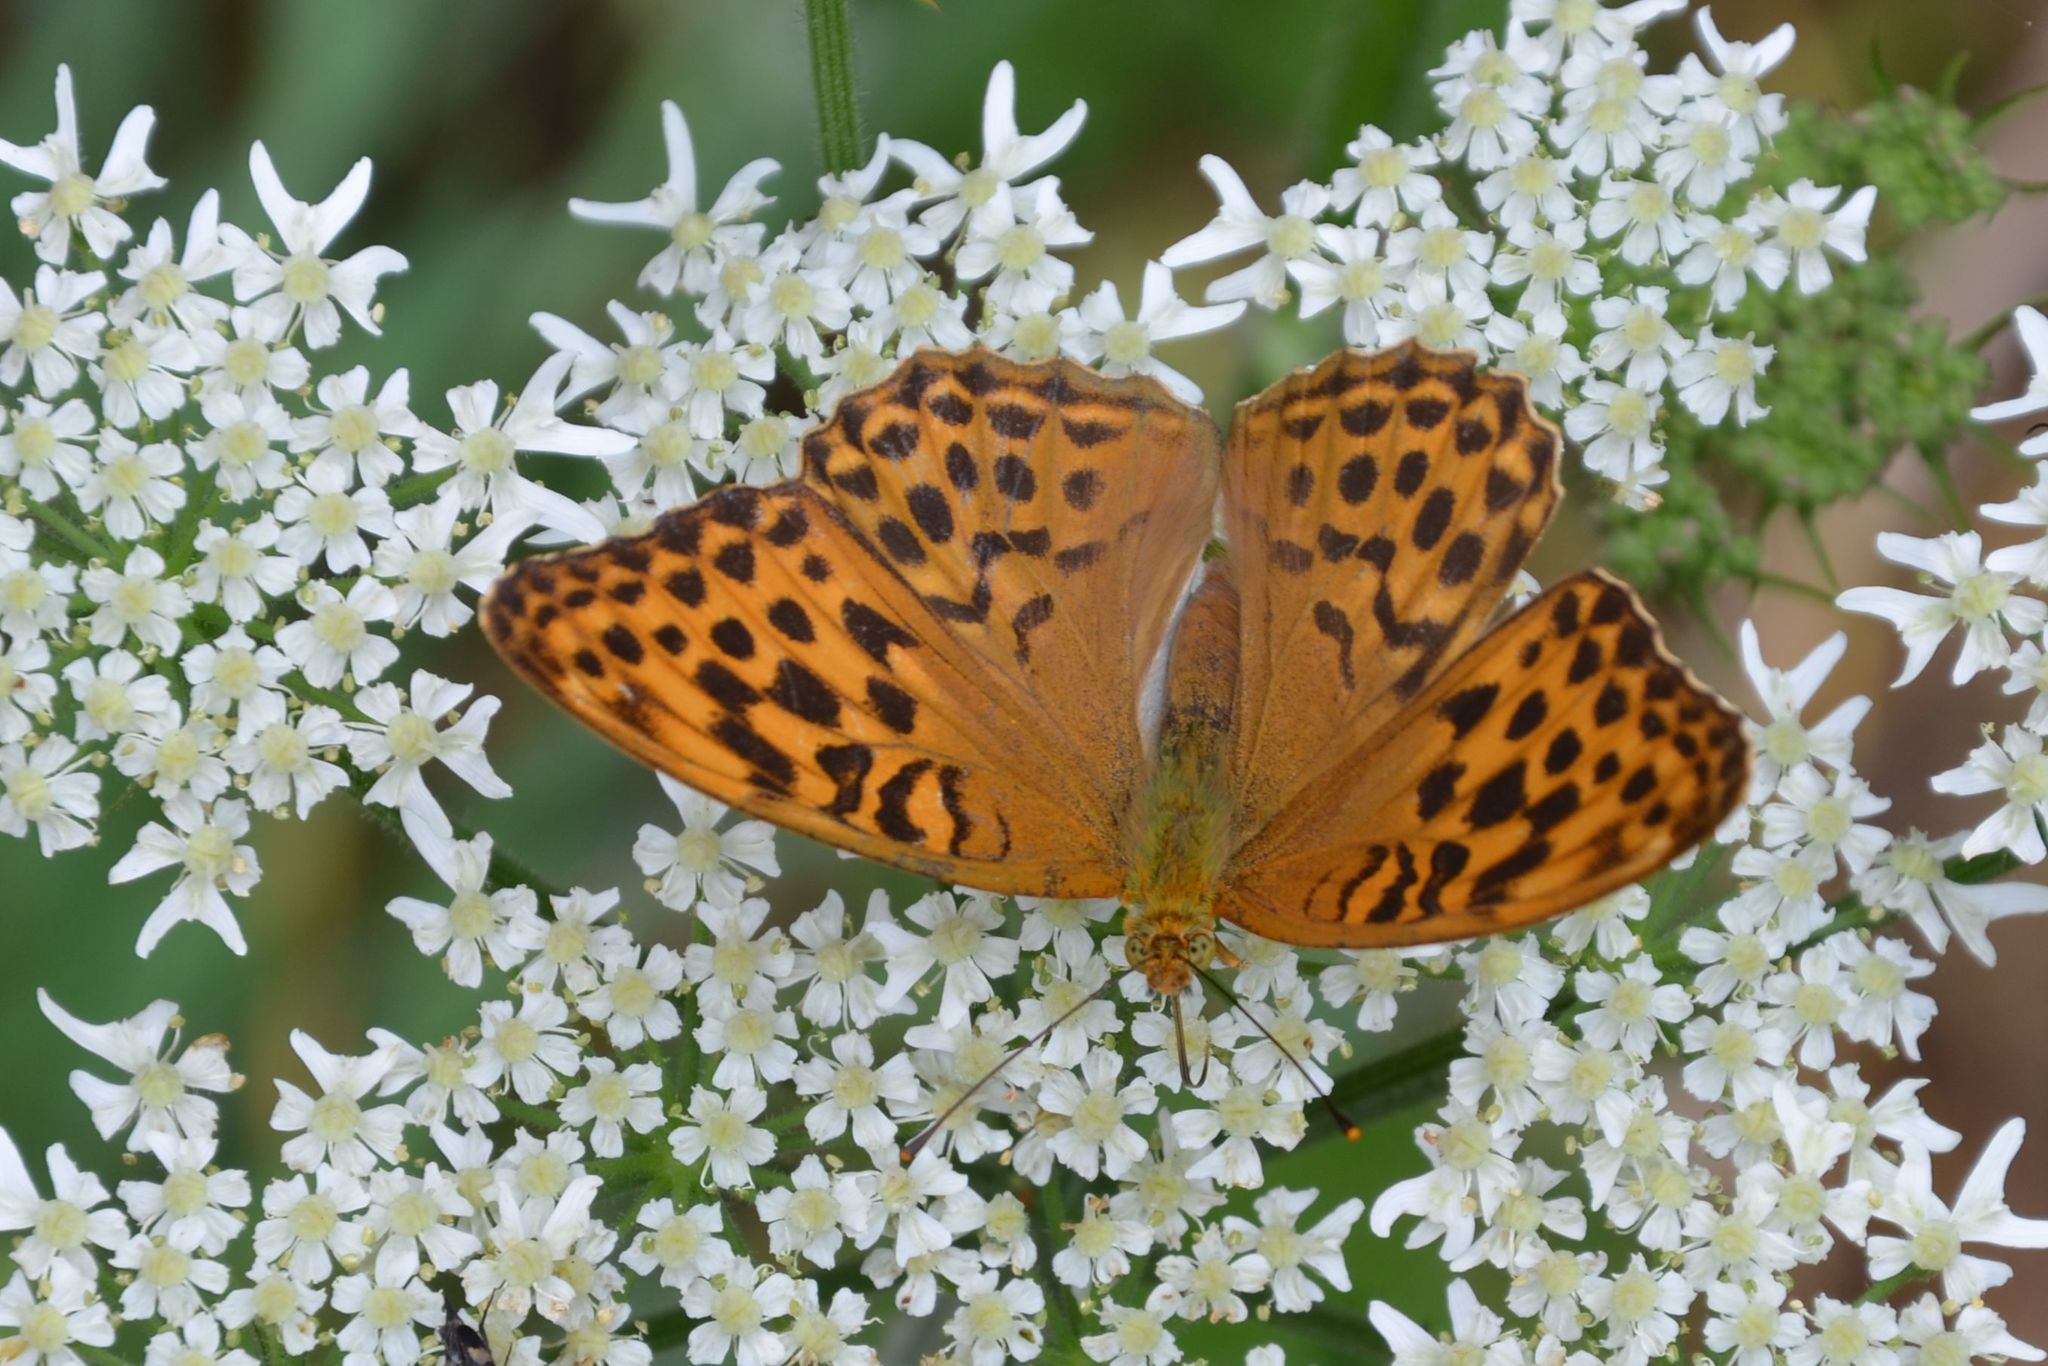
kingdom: Animalia
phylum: Arthropoda
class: Insecta
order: Lepidoptera
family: Nymphalidae
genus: Argynnis
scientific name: Argynnis paphia
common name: Silver-washed fritillary
